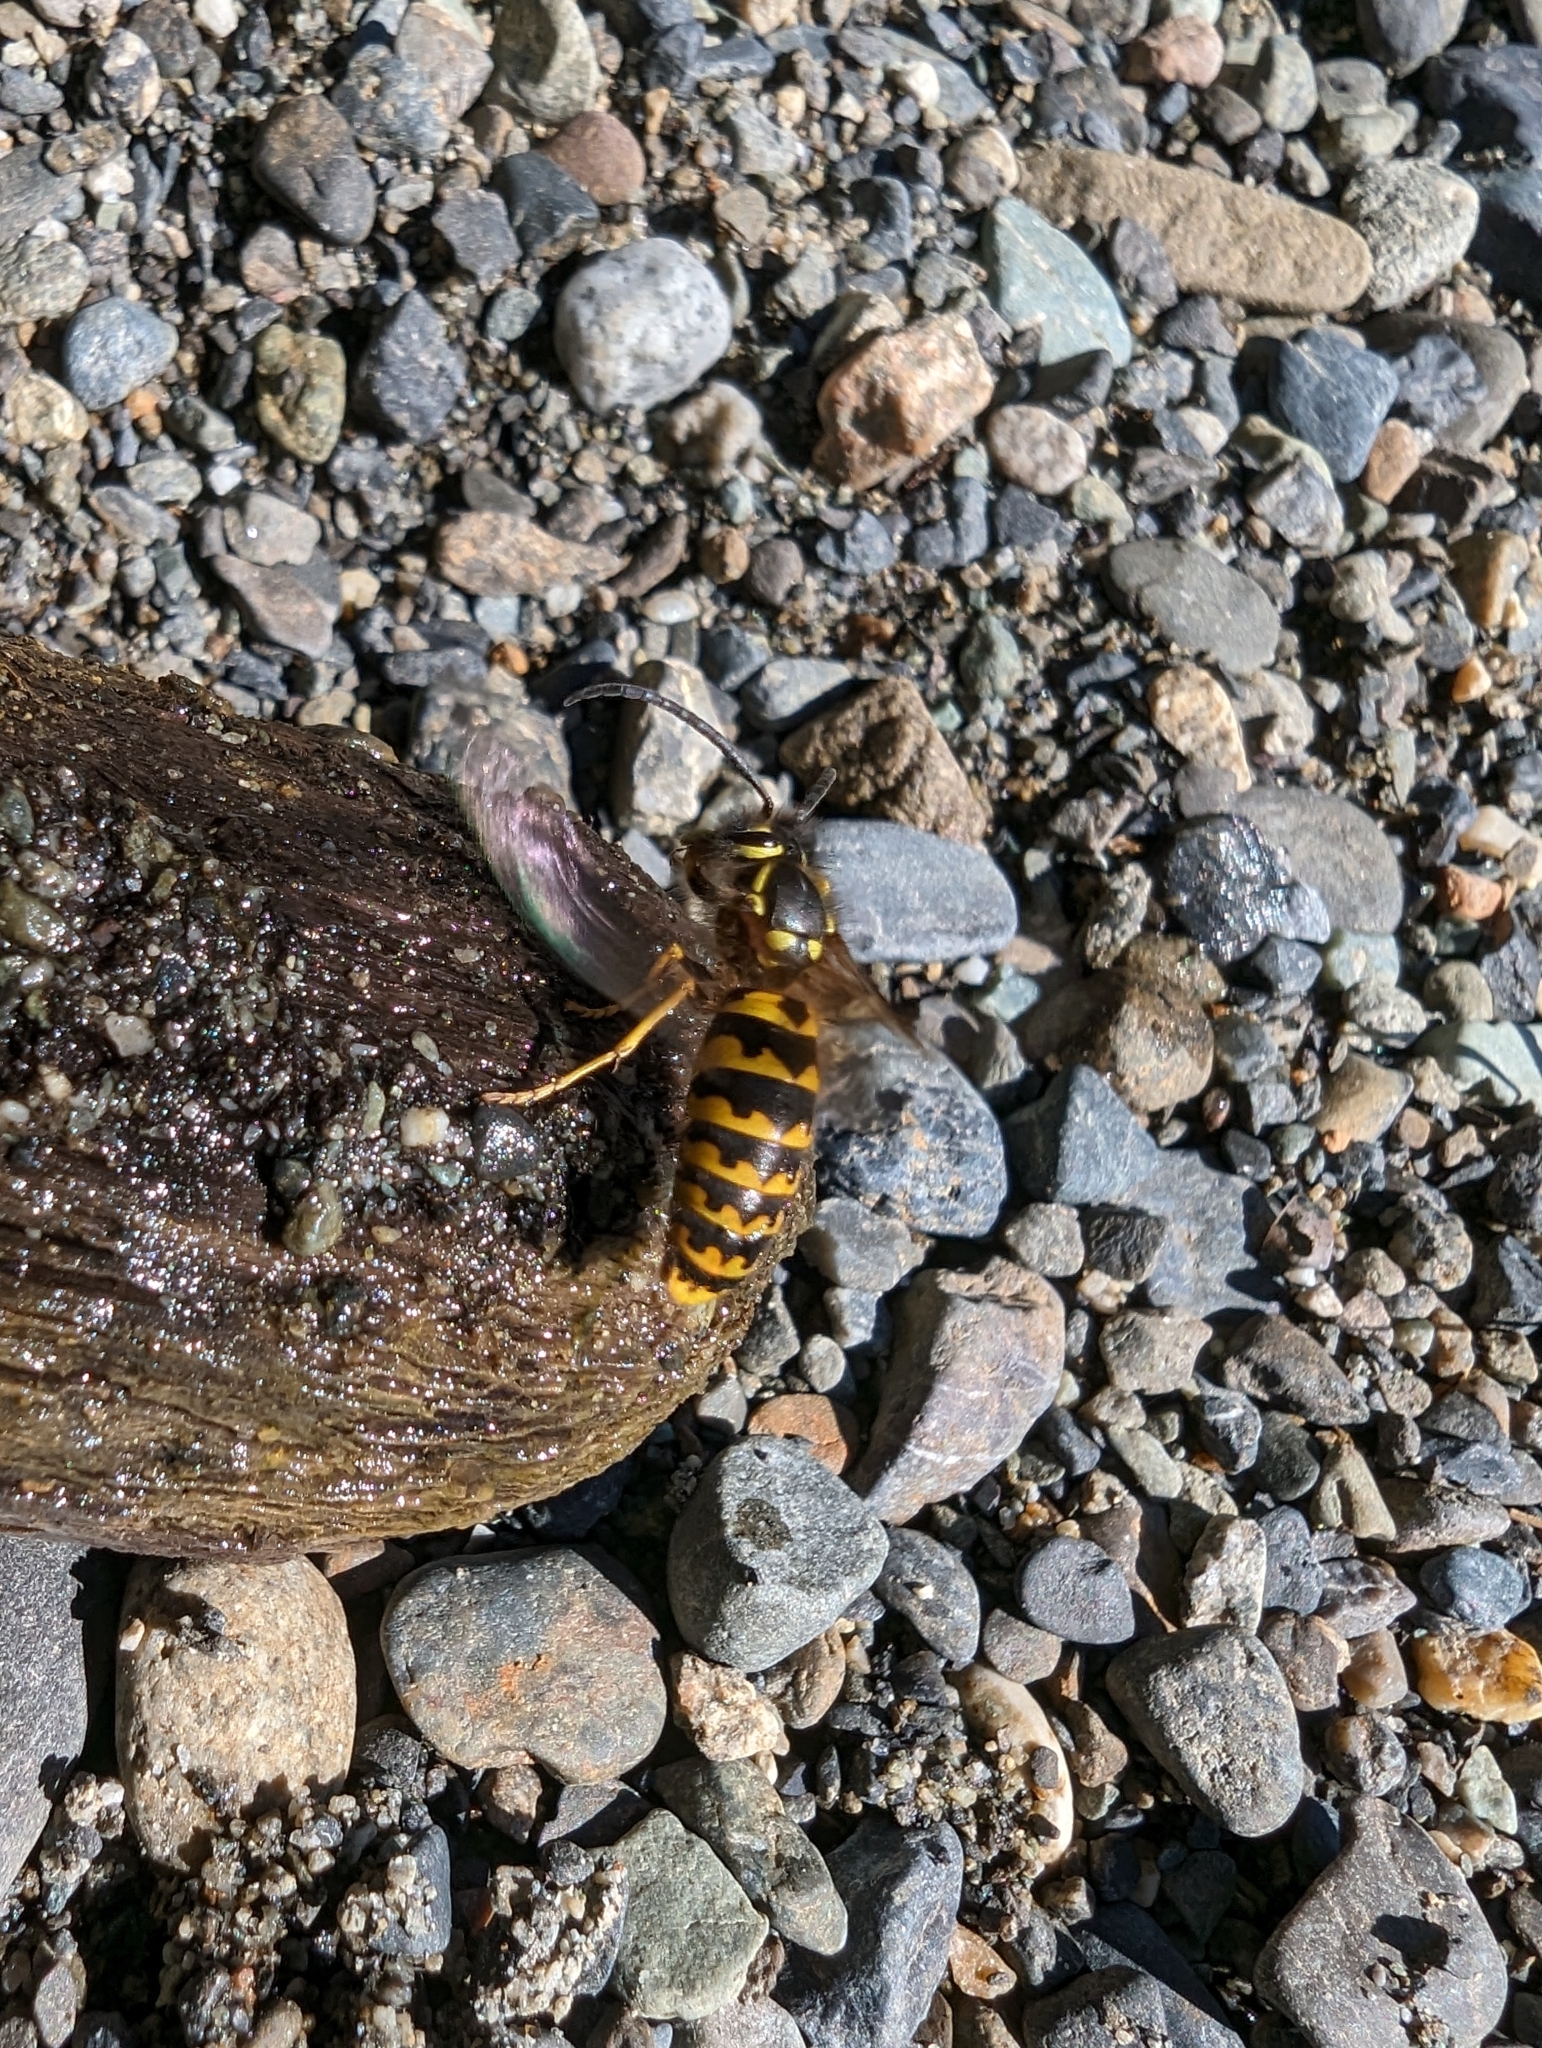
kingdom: Animalia
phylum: Arthropoda
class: Insecta
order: Hymenoptera
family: Vespidae
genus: Vespula
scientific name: Vespula pensylvanica
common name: Western yellowjacket
